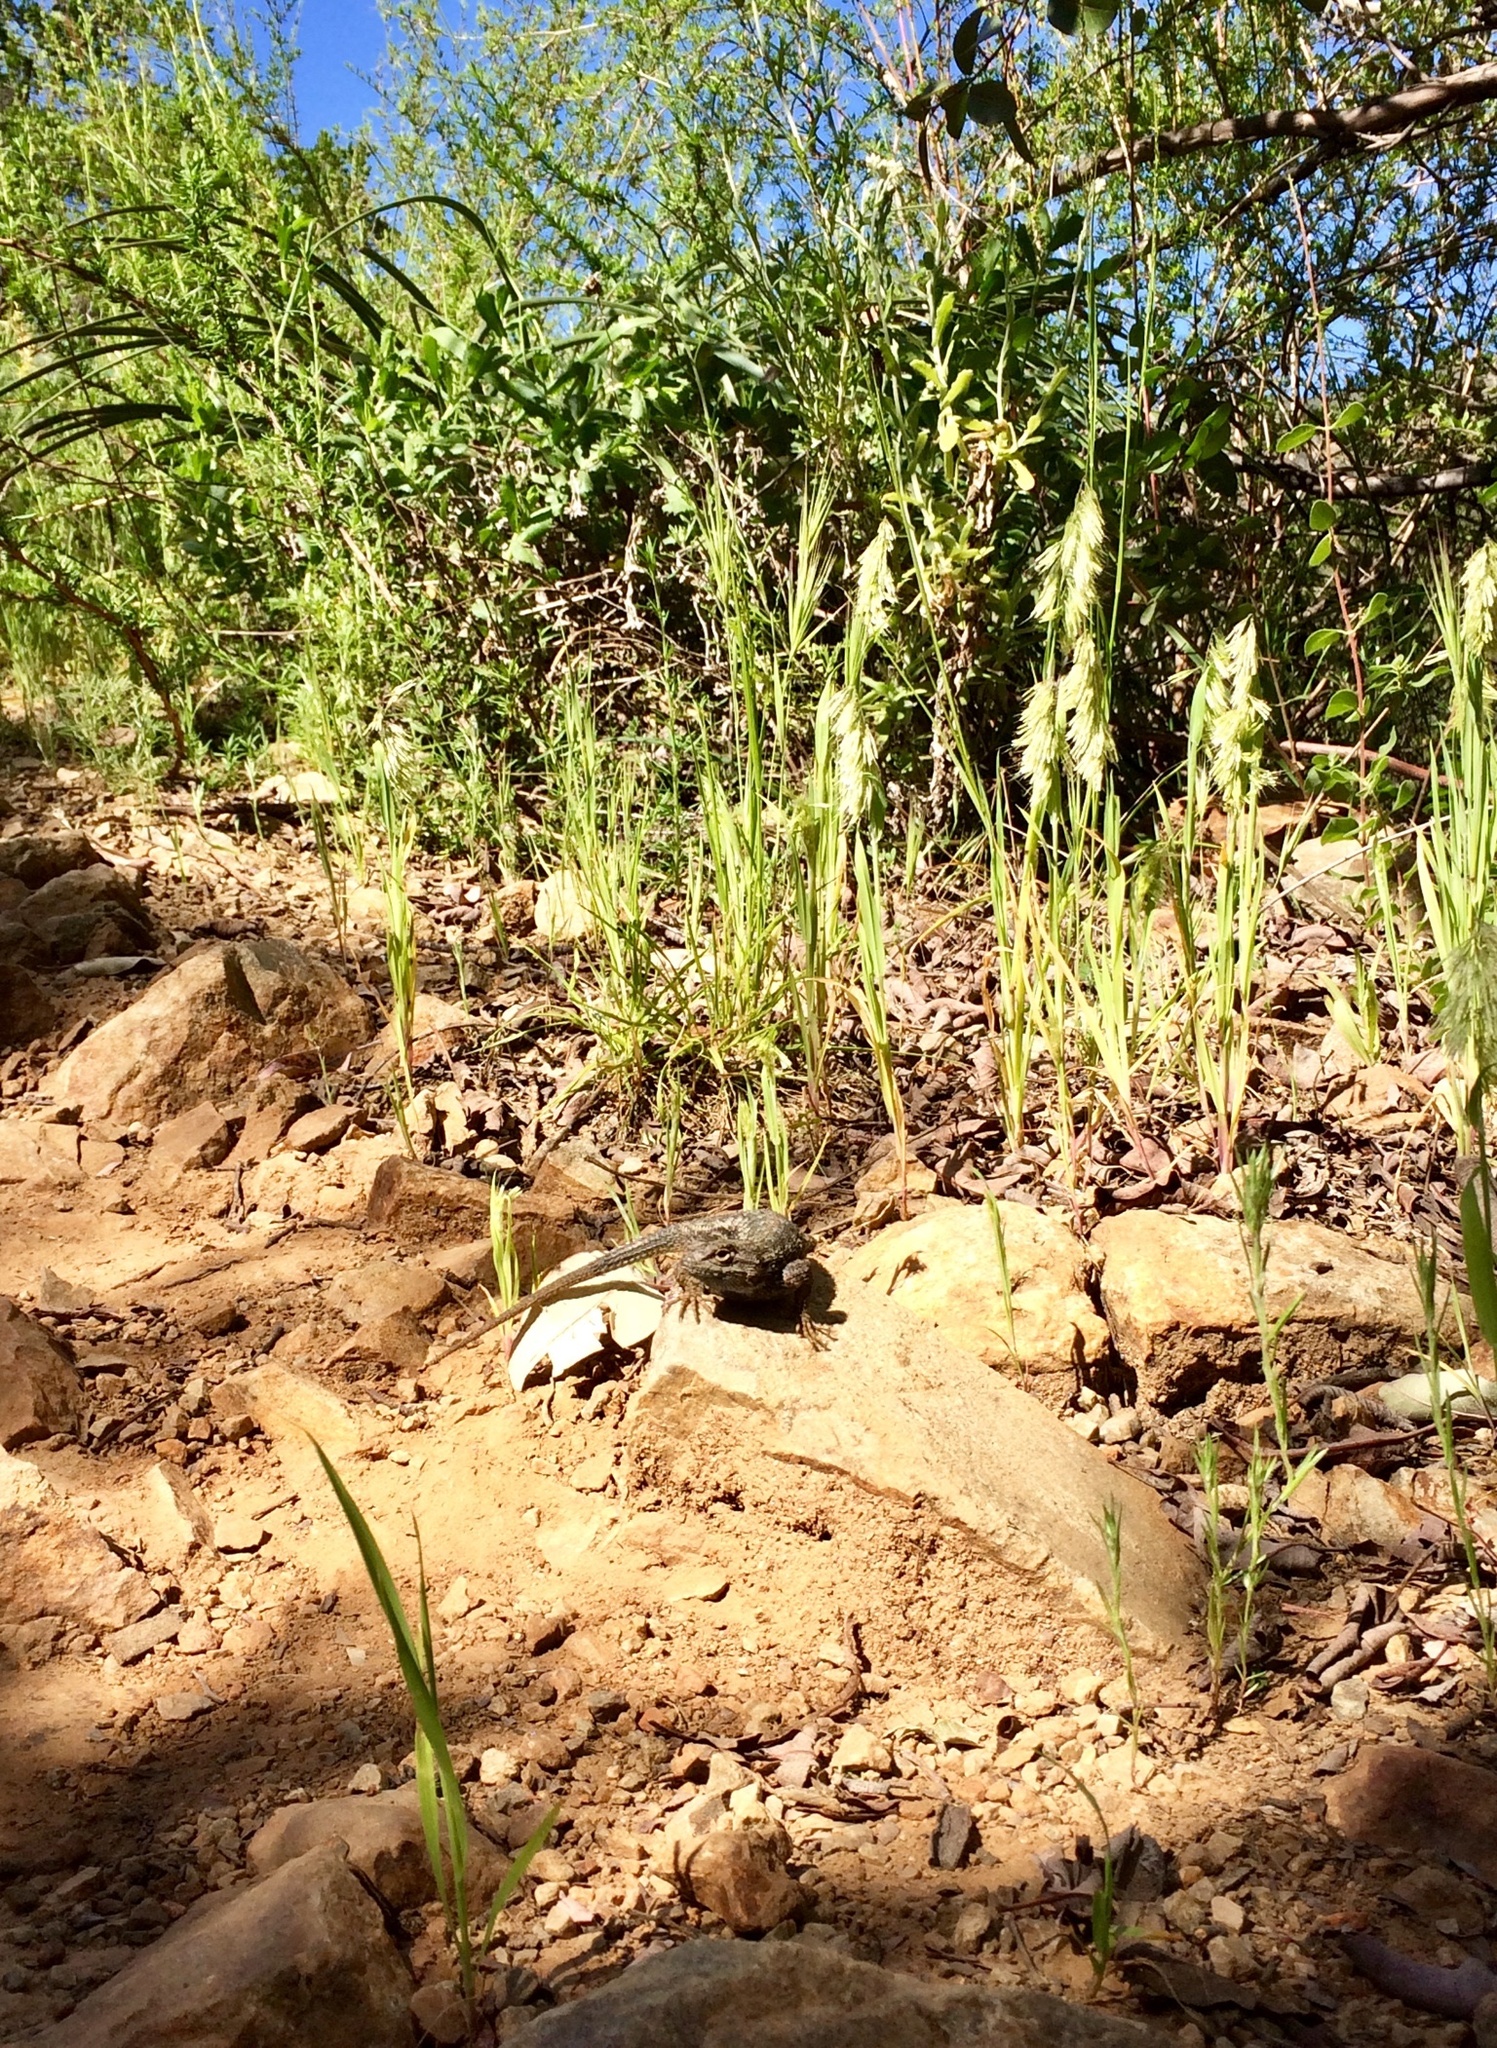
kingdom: Animalia
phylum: Chordata
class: Squamata
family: Phrynosomatidae
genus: Sceloporus
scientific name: Sceloporus occidentalis
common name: Western fence lizard
